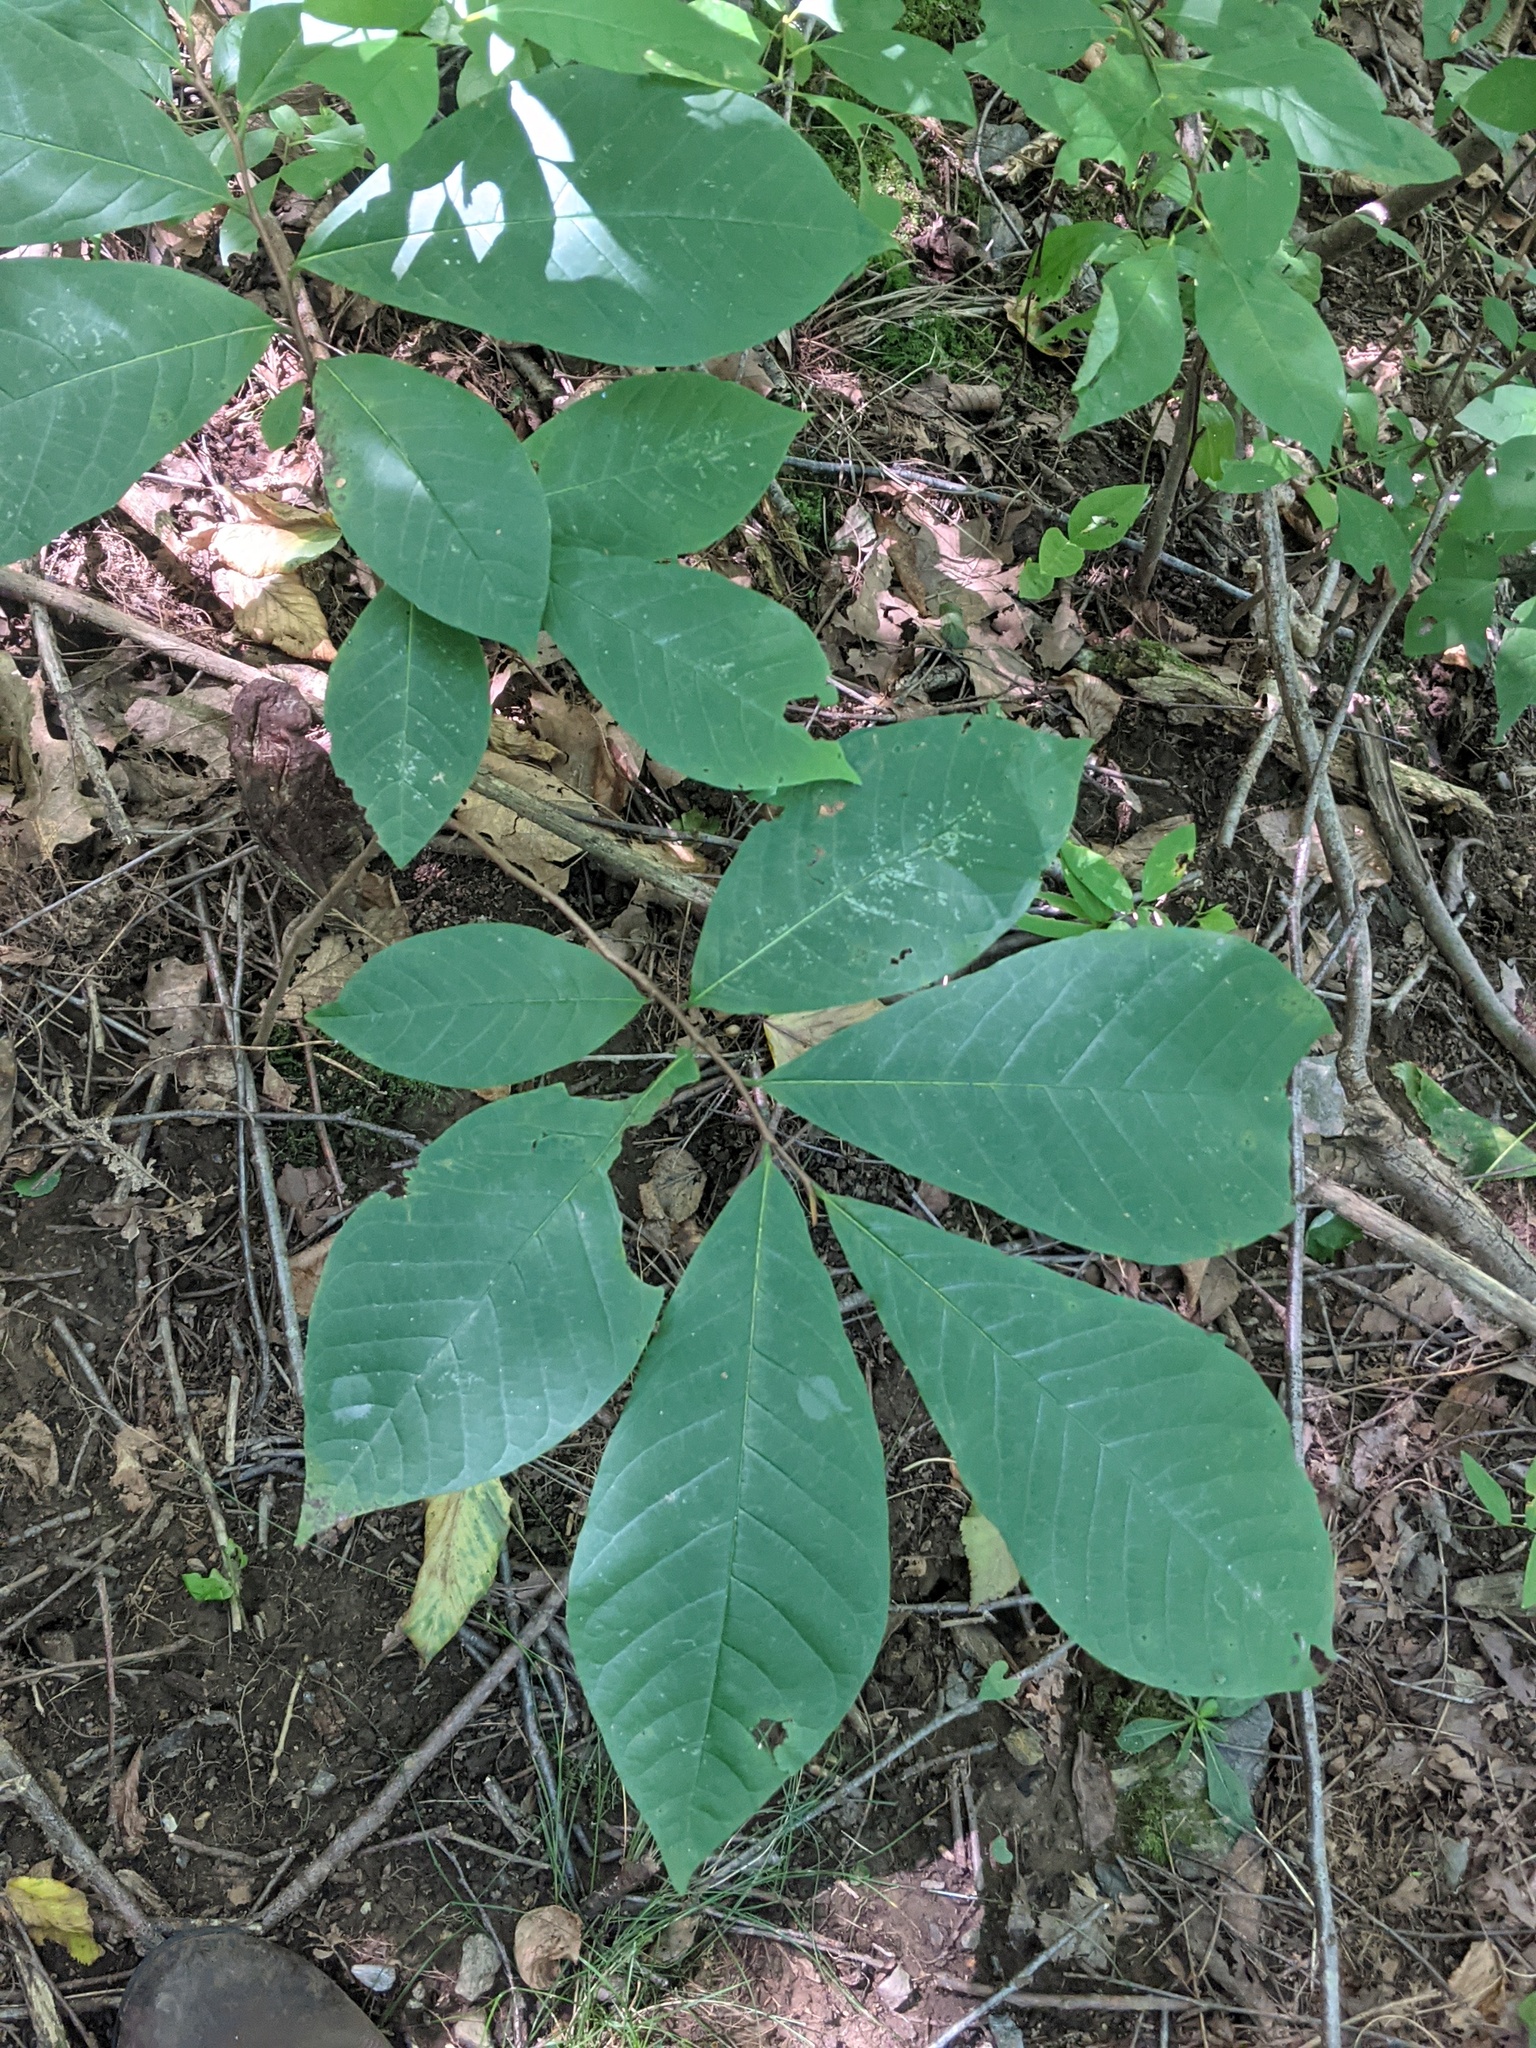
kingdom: Plantae
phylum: Tracheophyta
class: Magnoliopsida
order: Magnoliales
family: Annonaceae
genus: Asimina
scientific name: Asimina triloba
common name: Dog-banana
